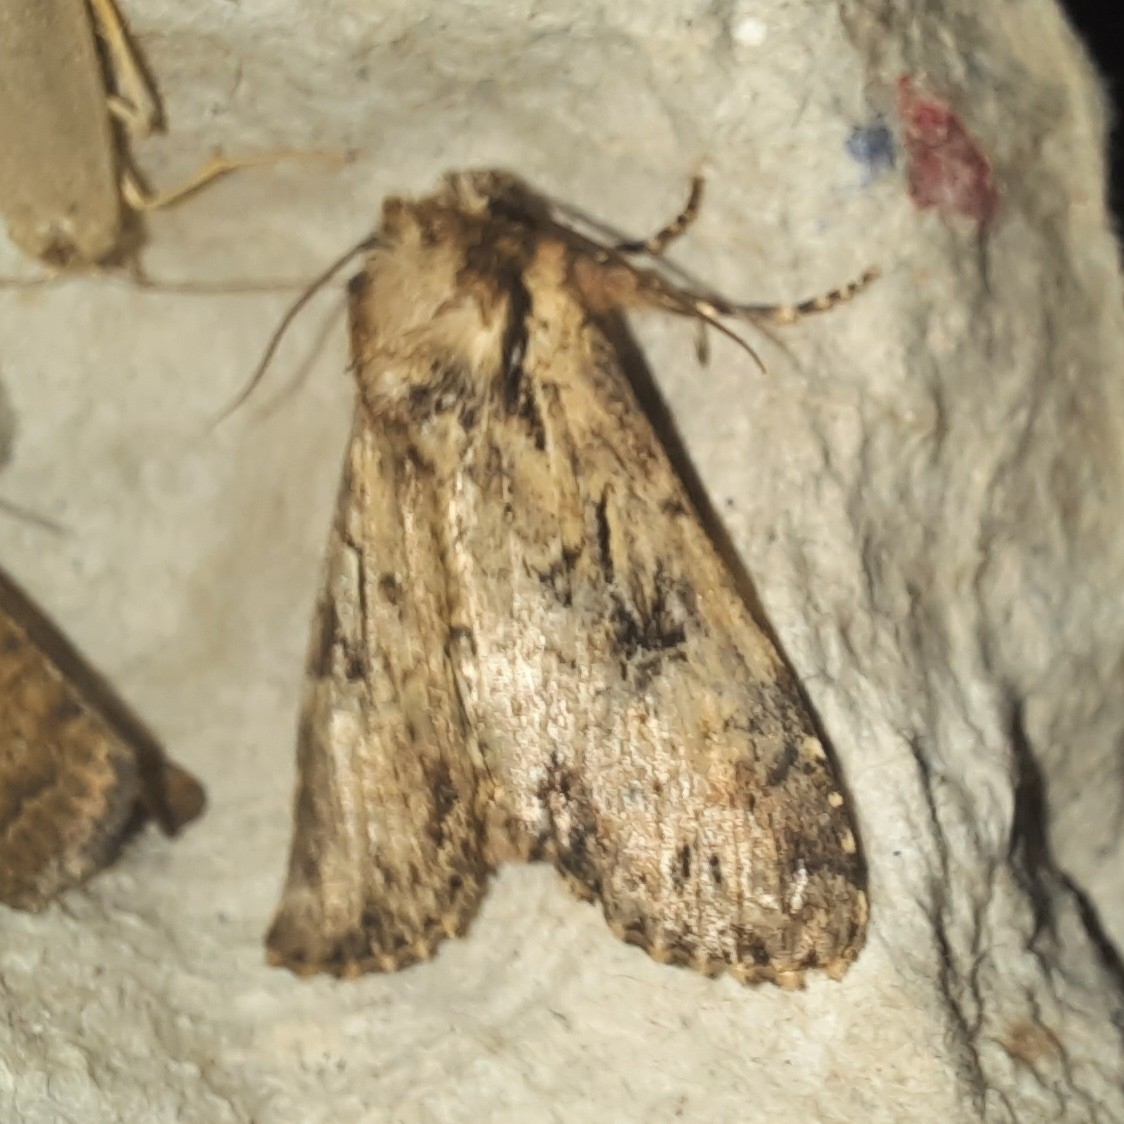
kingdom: Animalia
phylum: Arthropoda
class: Insecta
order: Lepidoptera
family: Noctuidae
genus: Apamea
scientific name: Apamea epomidion
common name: Clouded brindle
